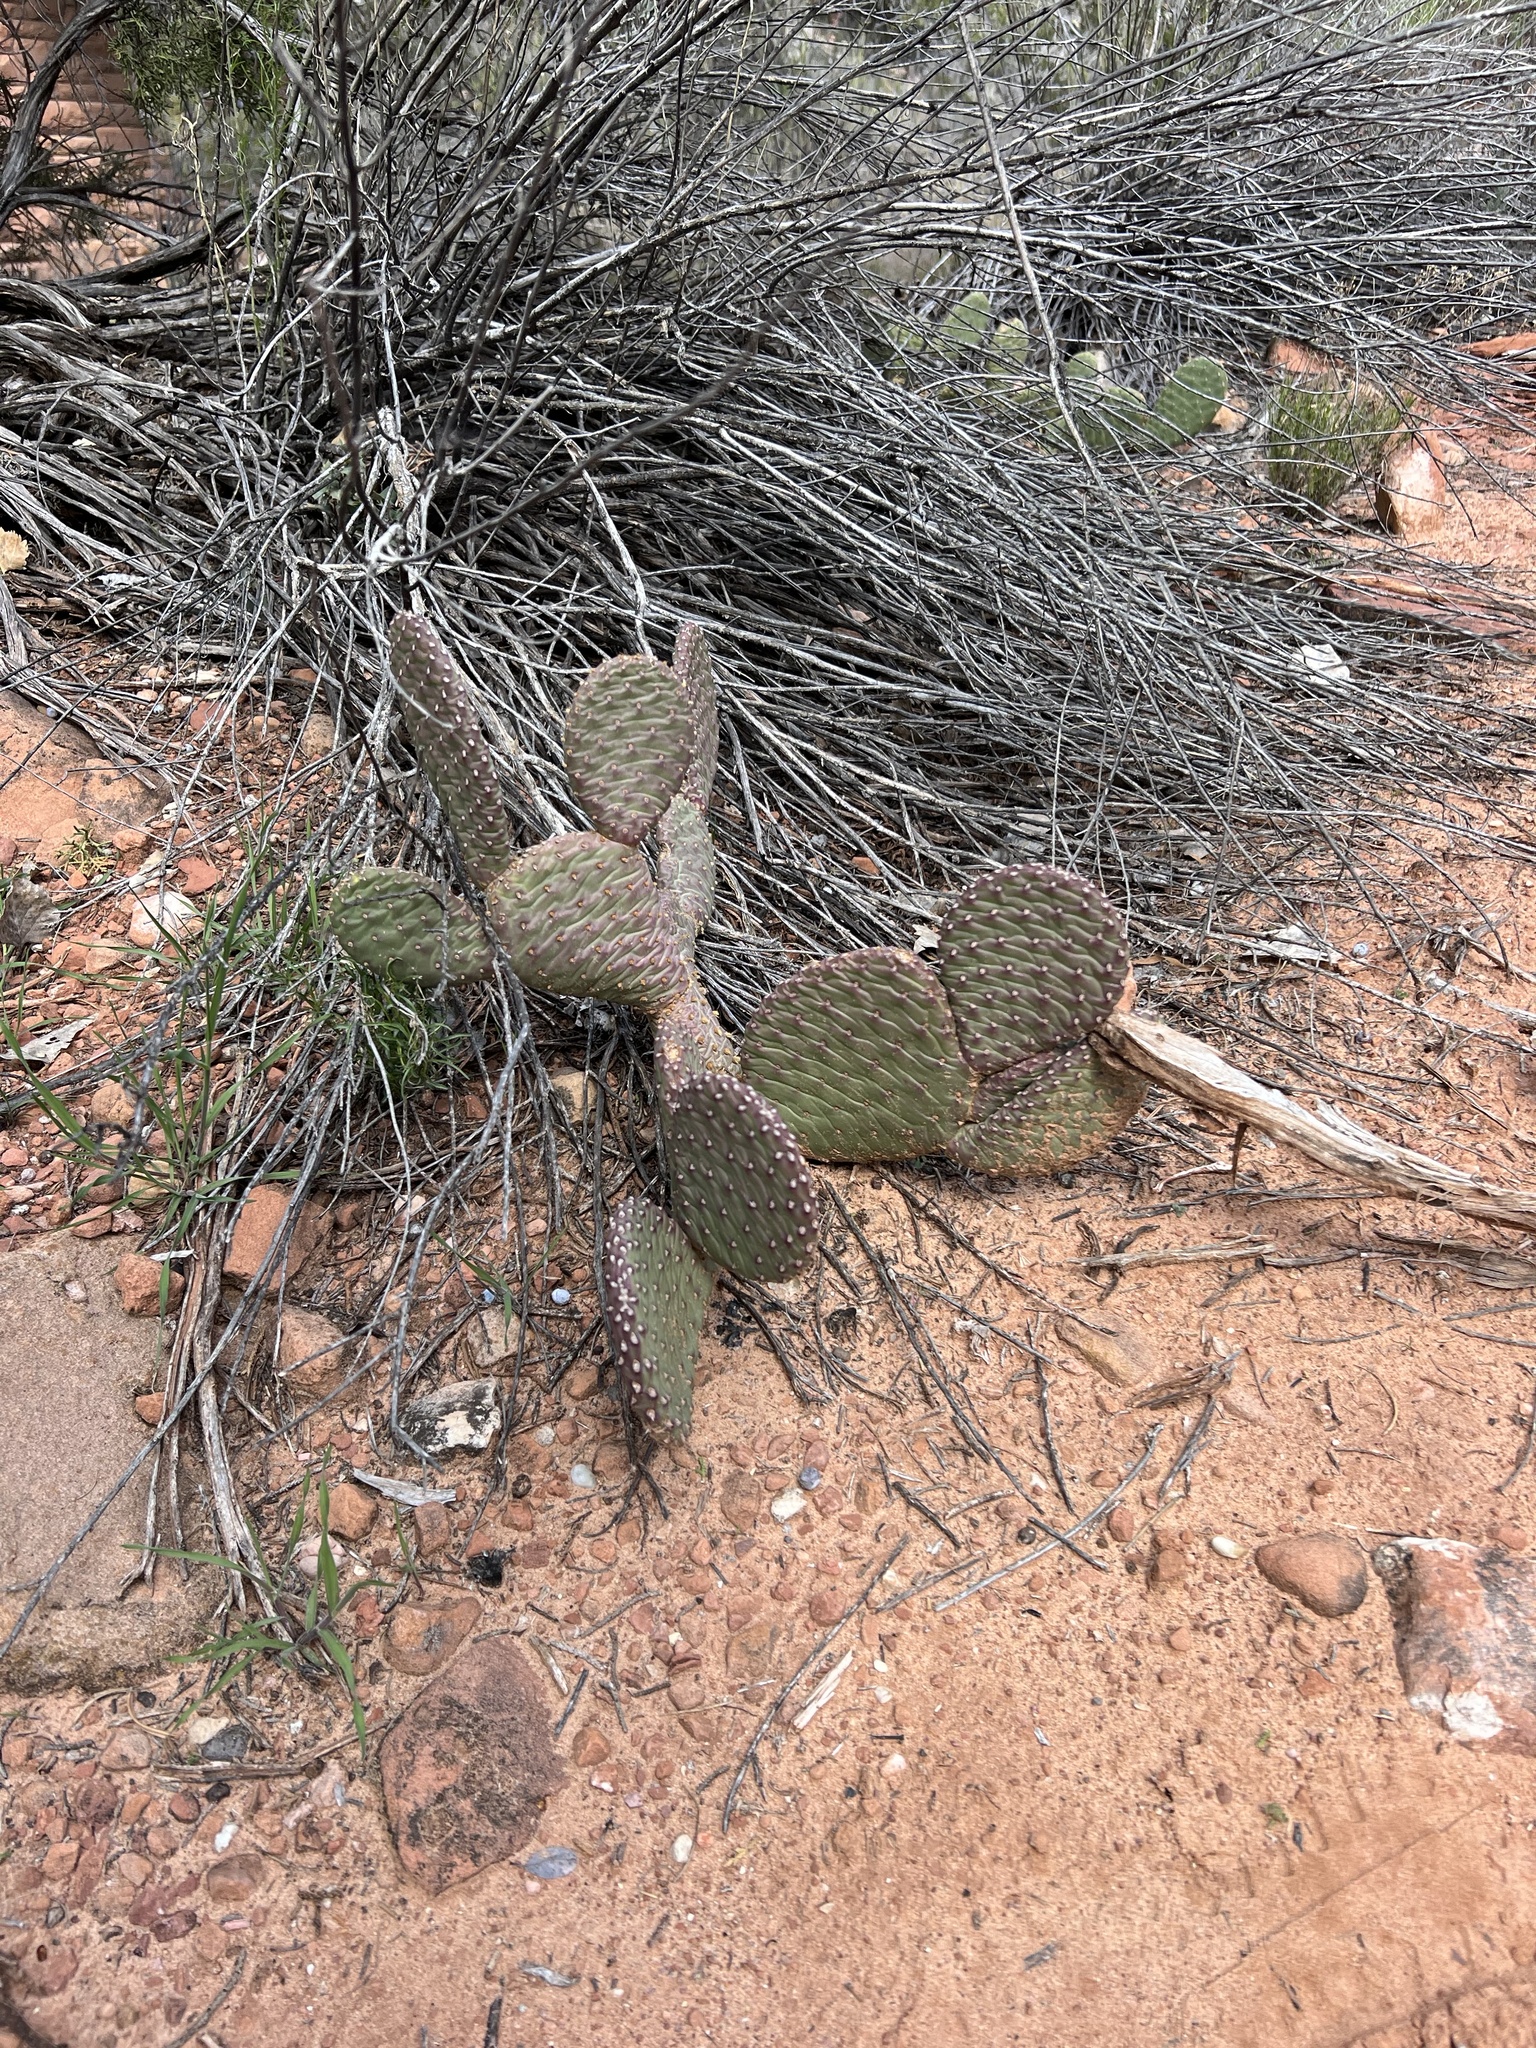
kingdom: Plantae
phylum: Tracheophyta
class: Magnoliopsida
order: Caryophyllales
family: Cactaceae
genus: Opuntia
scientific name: Opuntia aurea
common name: Golden prickly-pear
